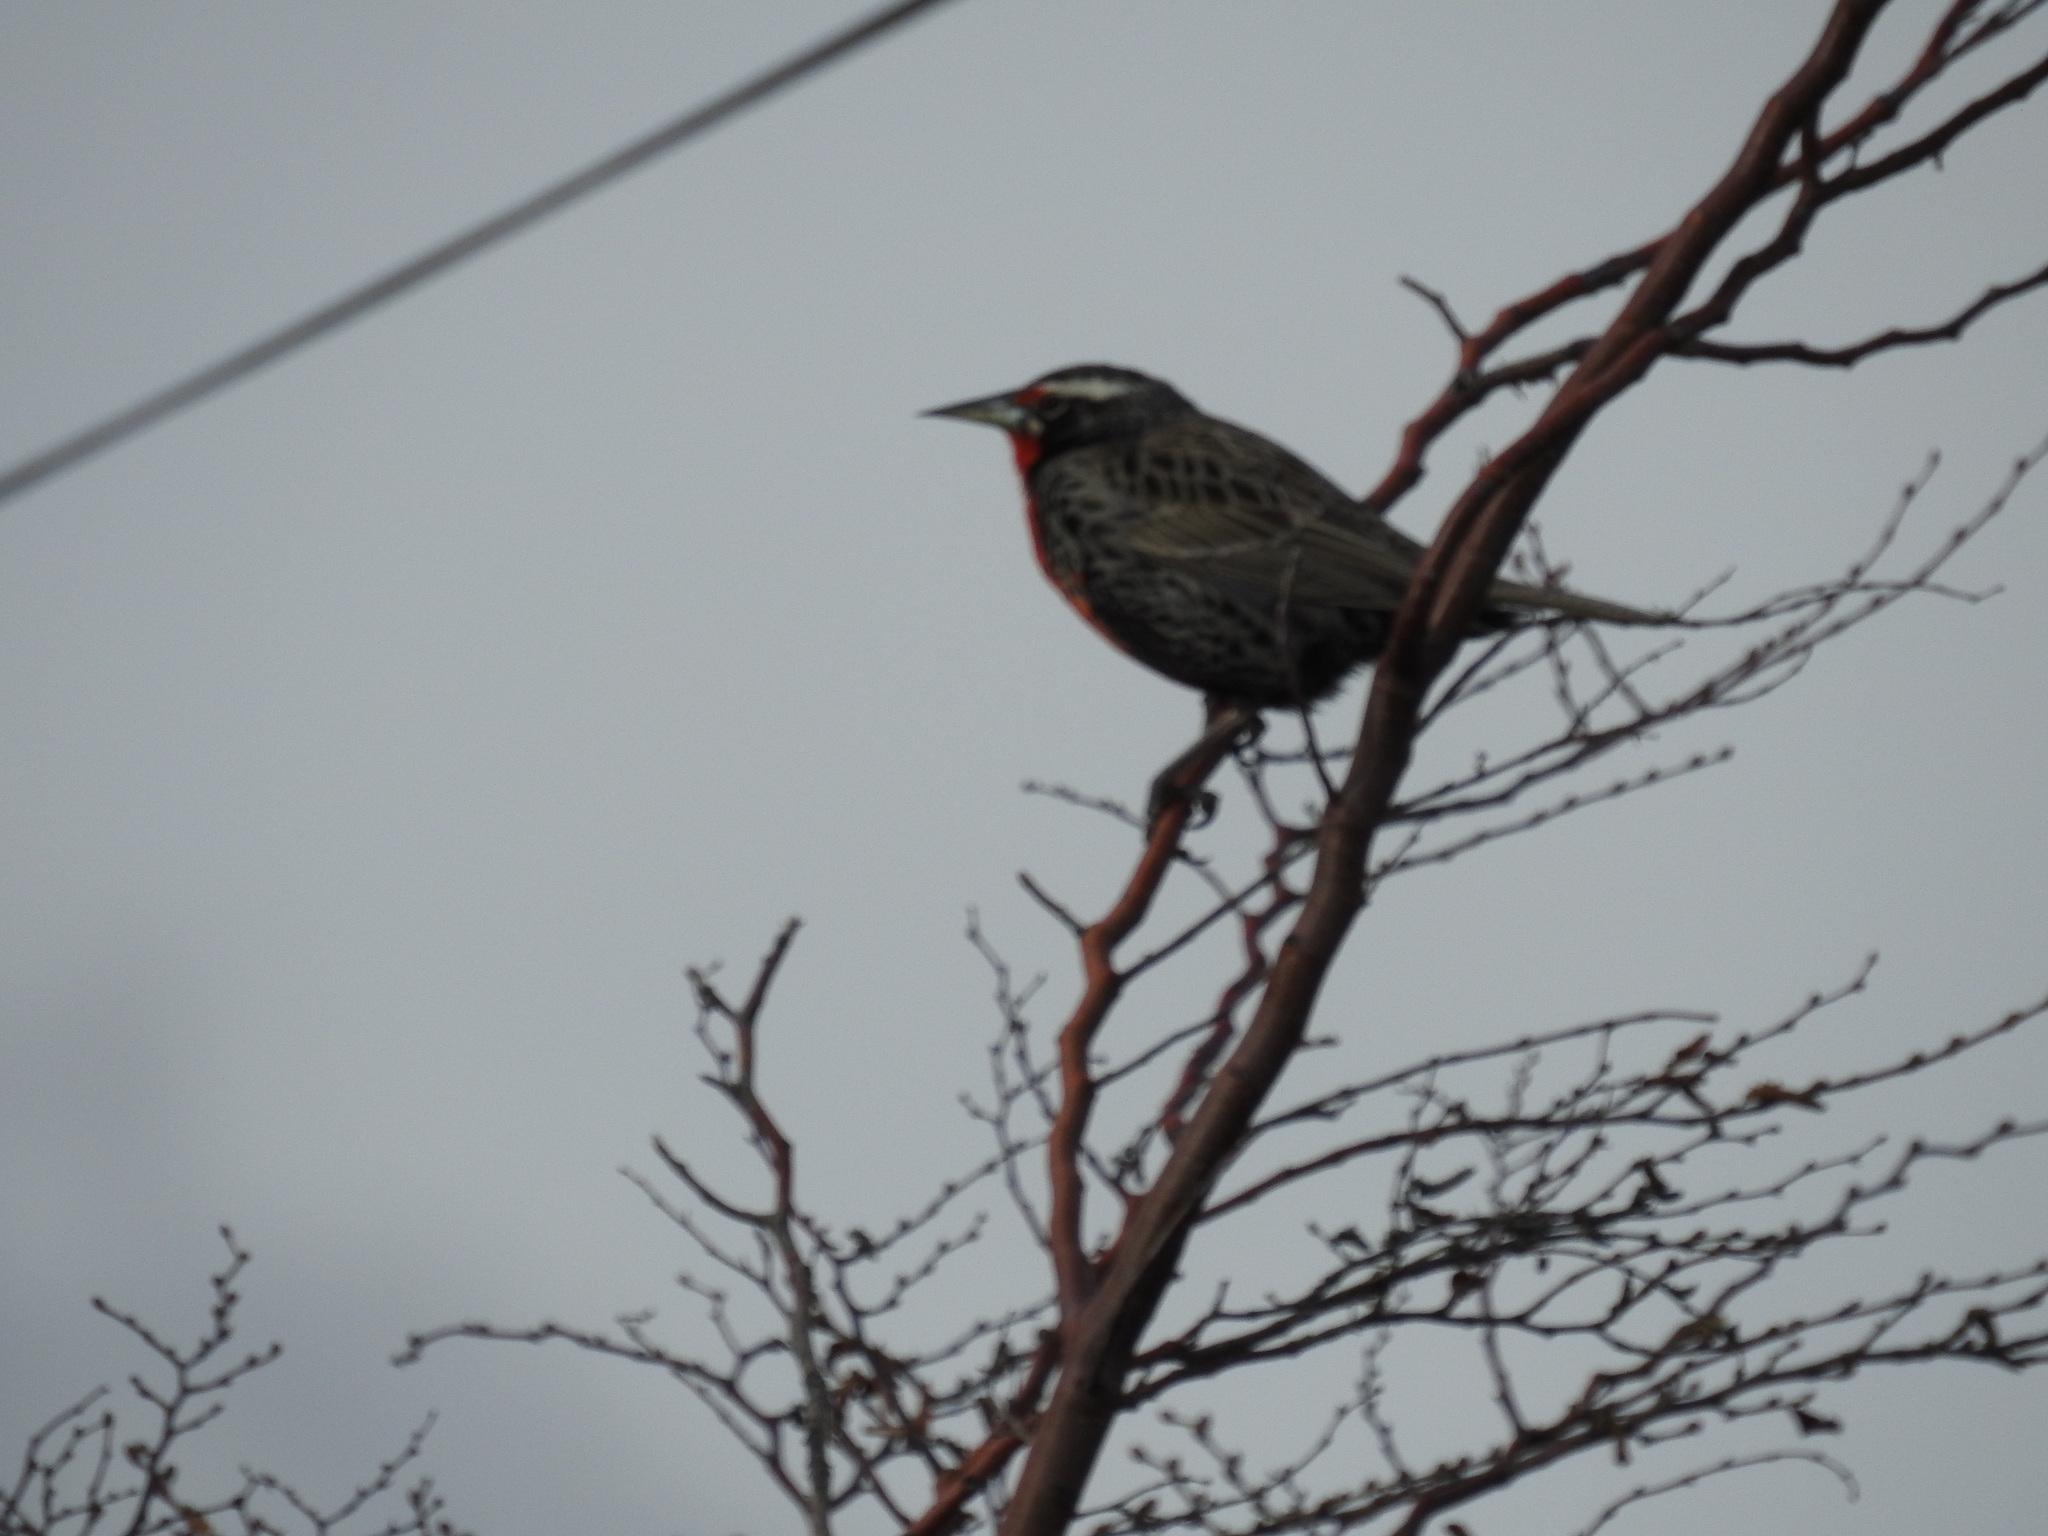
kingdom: Animalia
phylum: Chordata
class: Aves
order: Passeriformes
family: Icteridae
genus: Sturnella
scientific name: Sturnella loyca
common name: Long-tailed meadowlark
